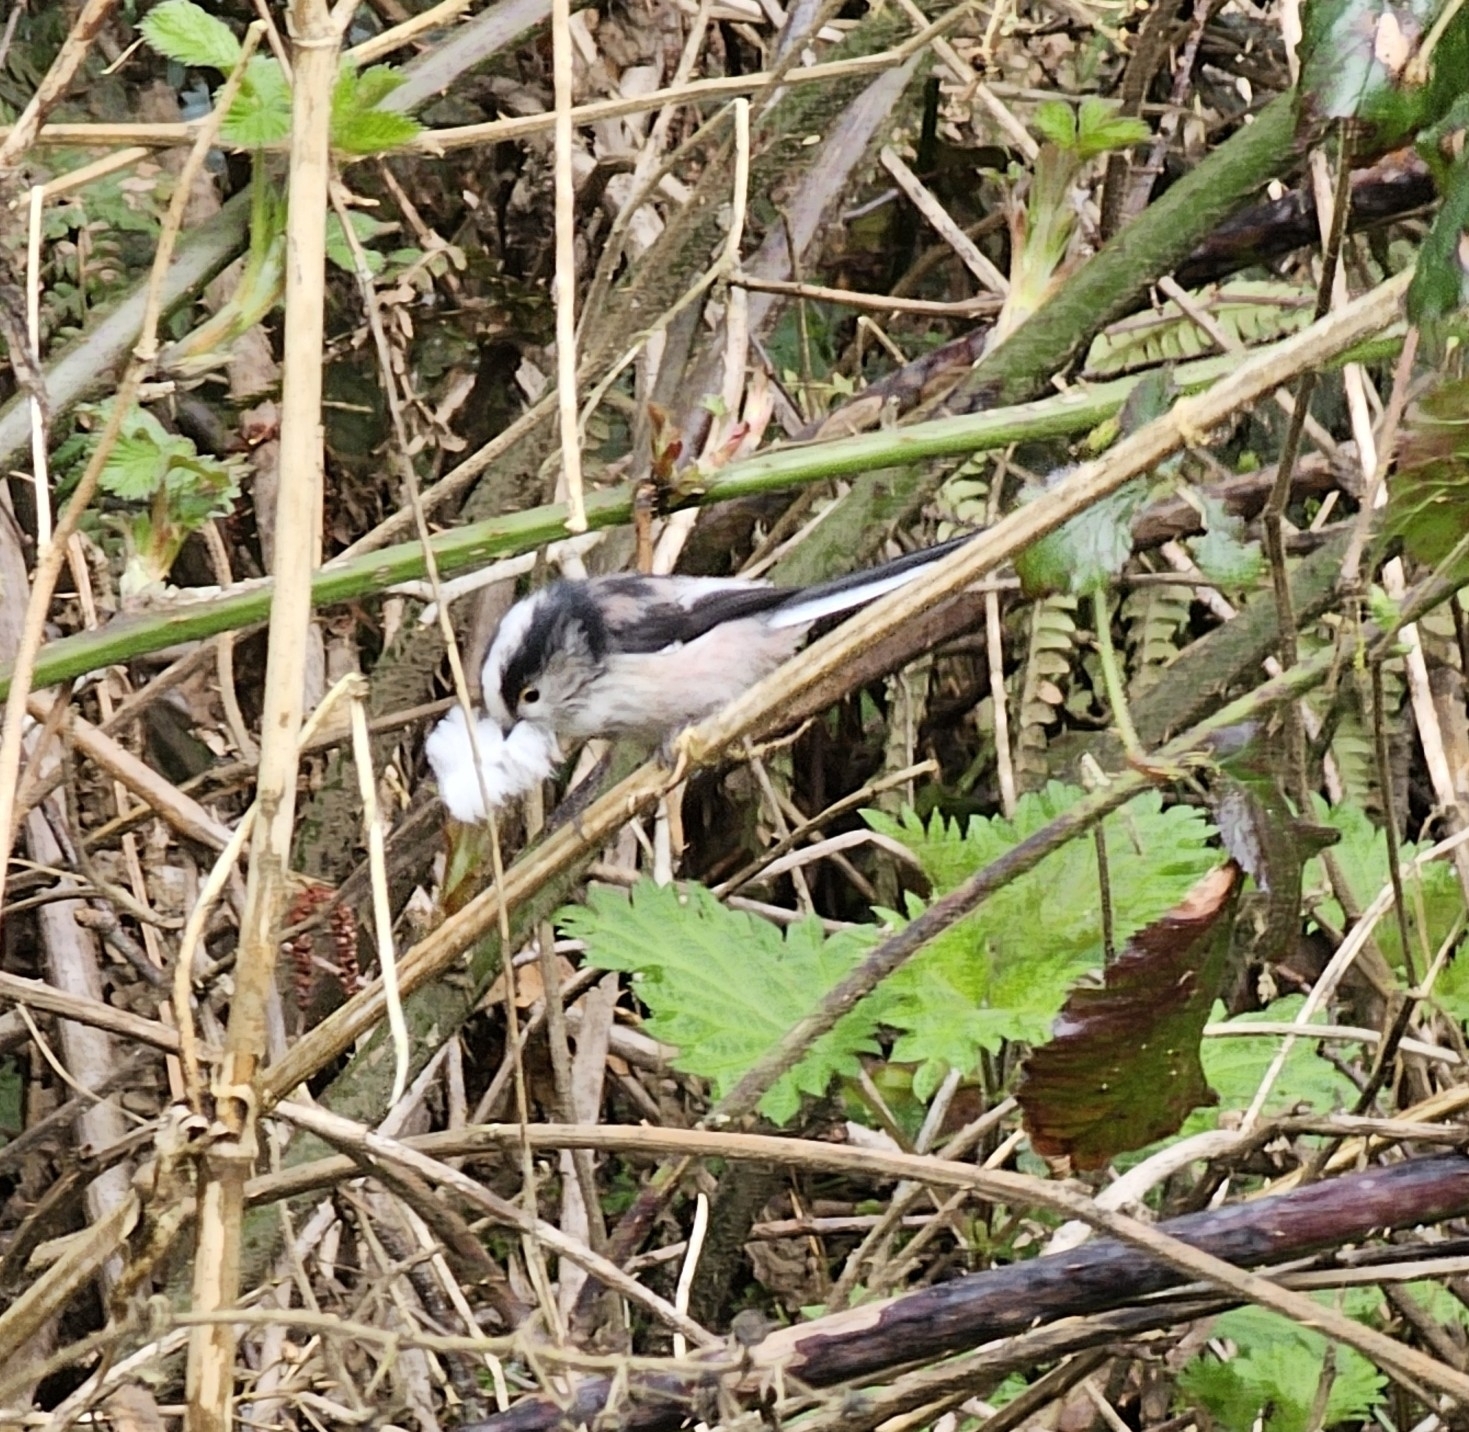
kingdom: Animalia
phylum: Chordata
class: Aves
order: Passeriformes
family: Aegithalidae
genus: Aegithalos
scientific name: Aegithalos caudatus
